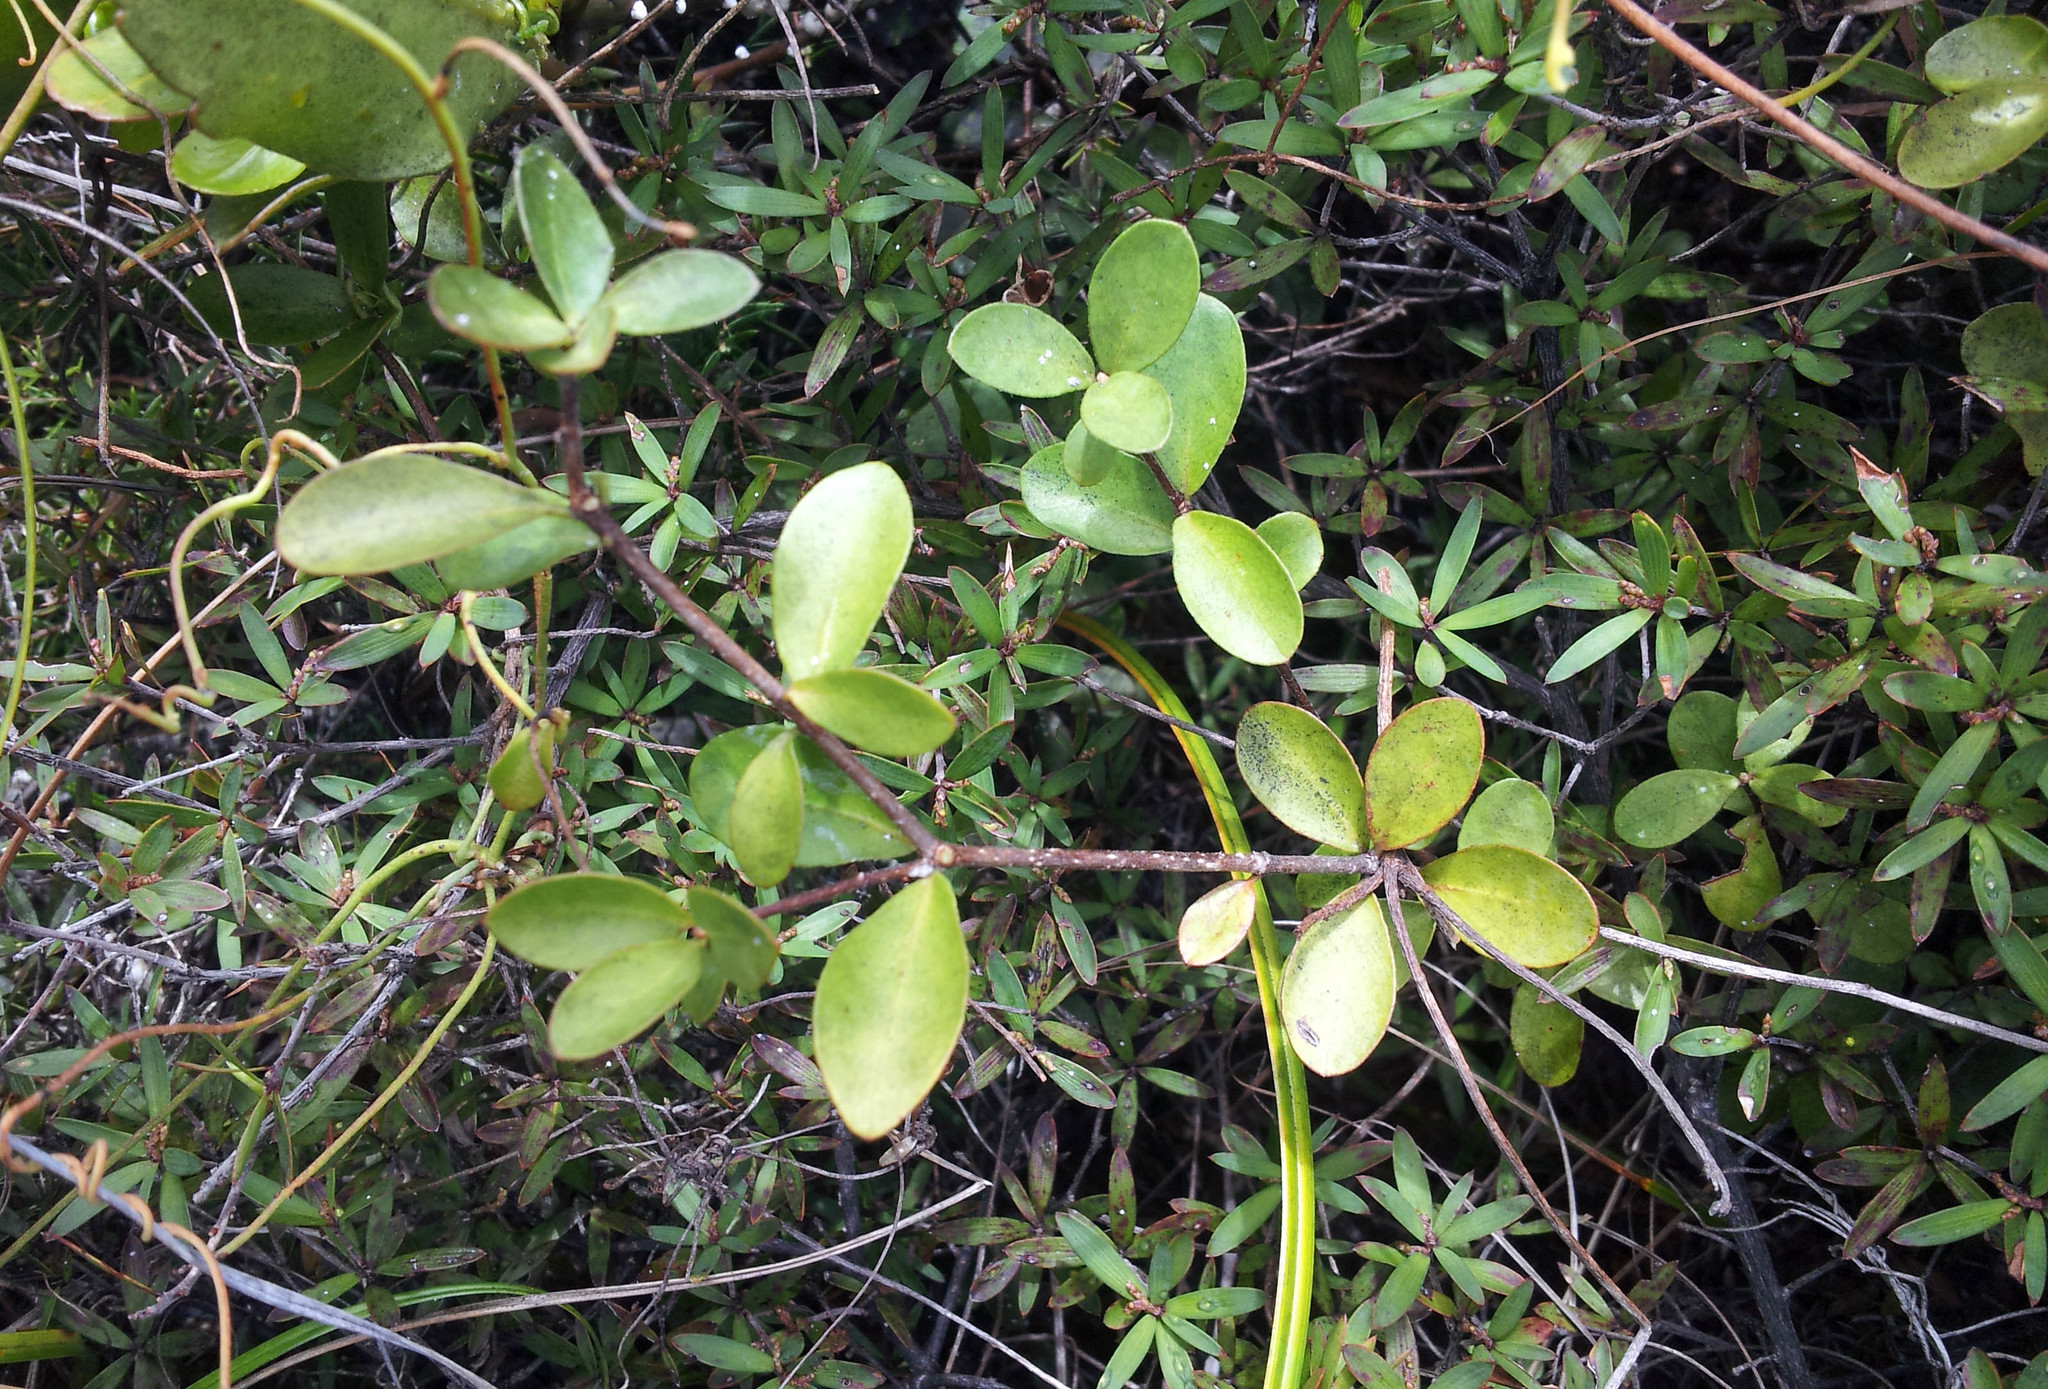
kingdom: Plantae
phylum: Tracheophyta
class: Magnoliopsida
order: Apiales
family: Pittosporaceae
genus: Pittosporum
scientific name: Pittosporum pimeleoides
